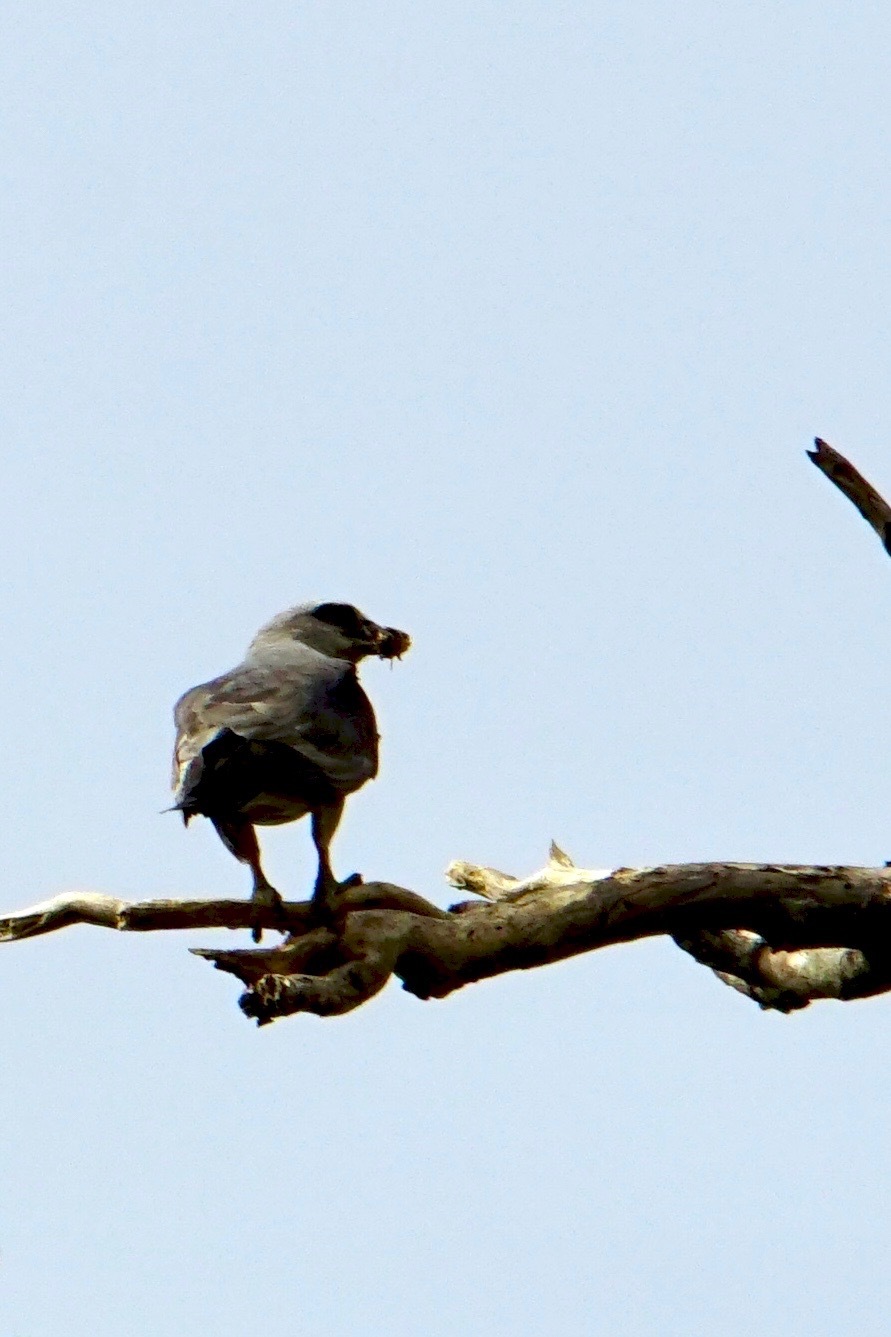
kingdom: Animalia
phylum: Chordata
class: Aves
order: Accipitriformes
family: Accipitridae
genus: Ictinia
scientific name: Ictinia mississippiensis
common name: Mississippi kite
